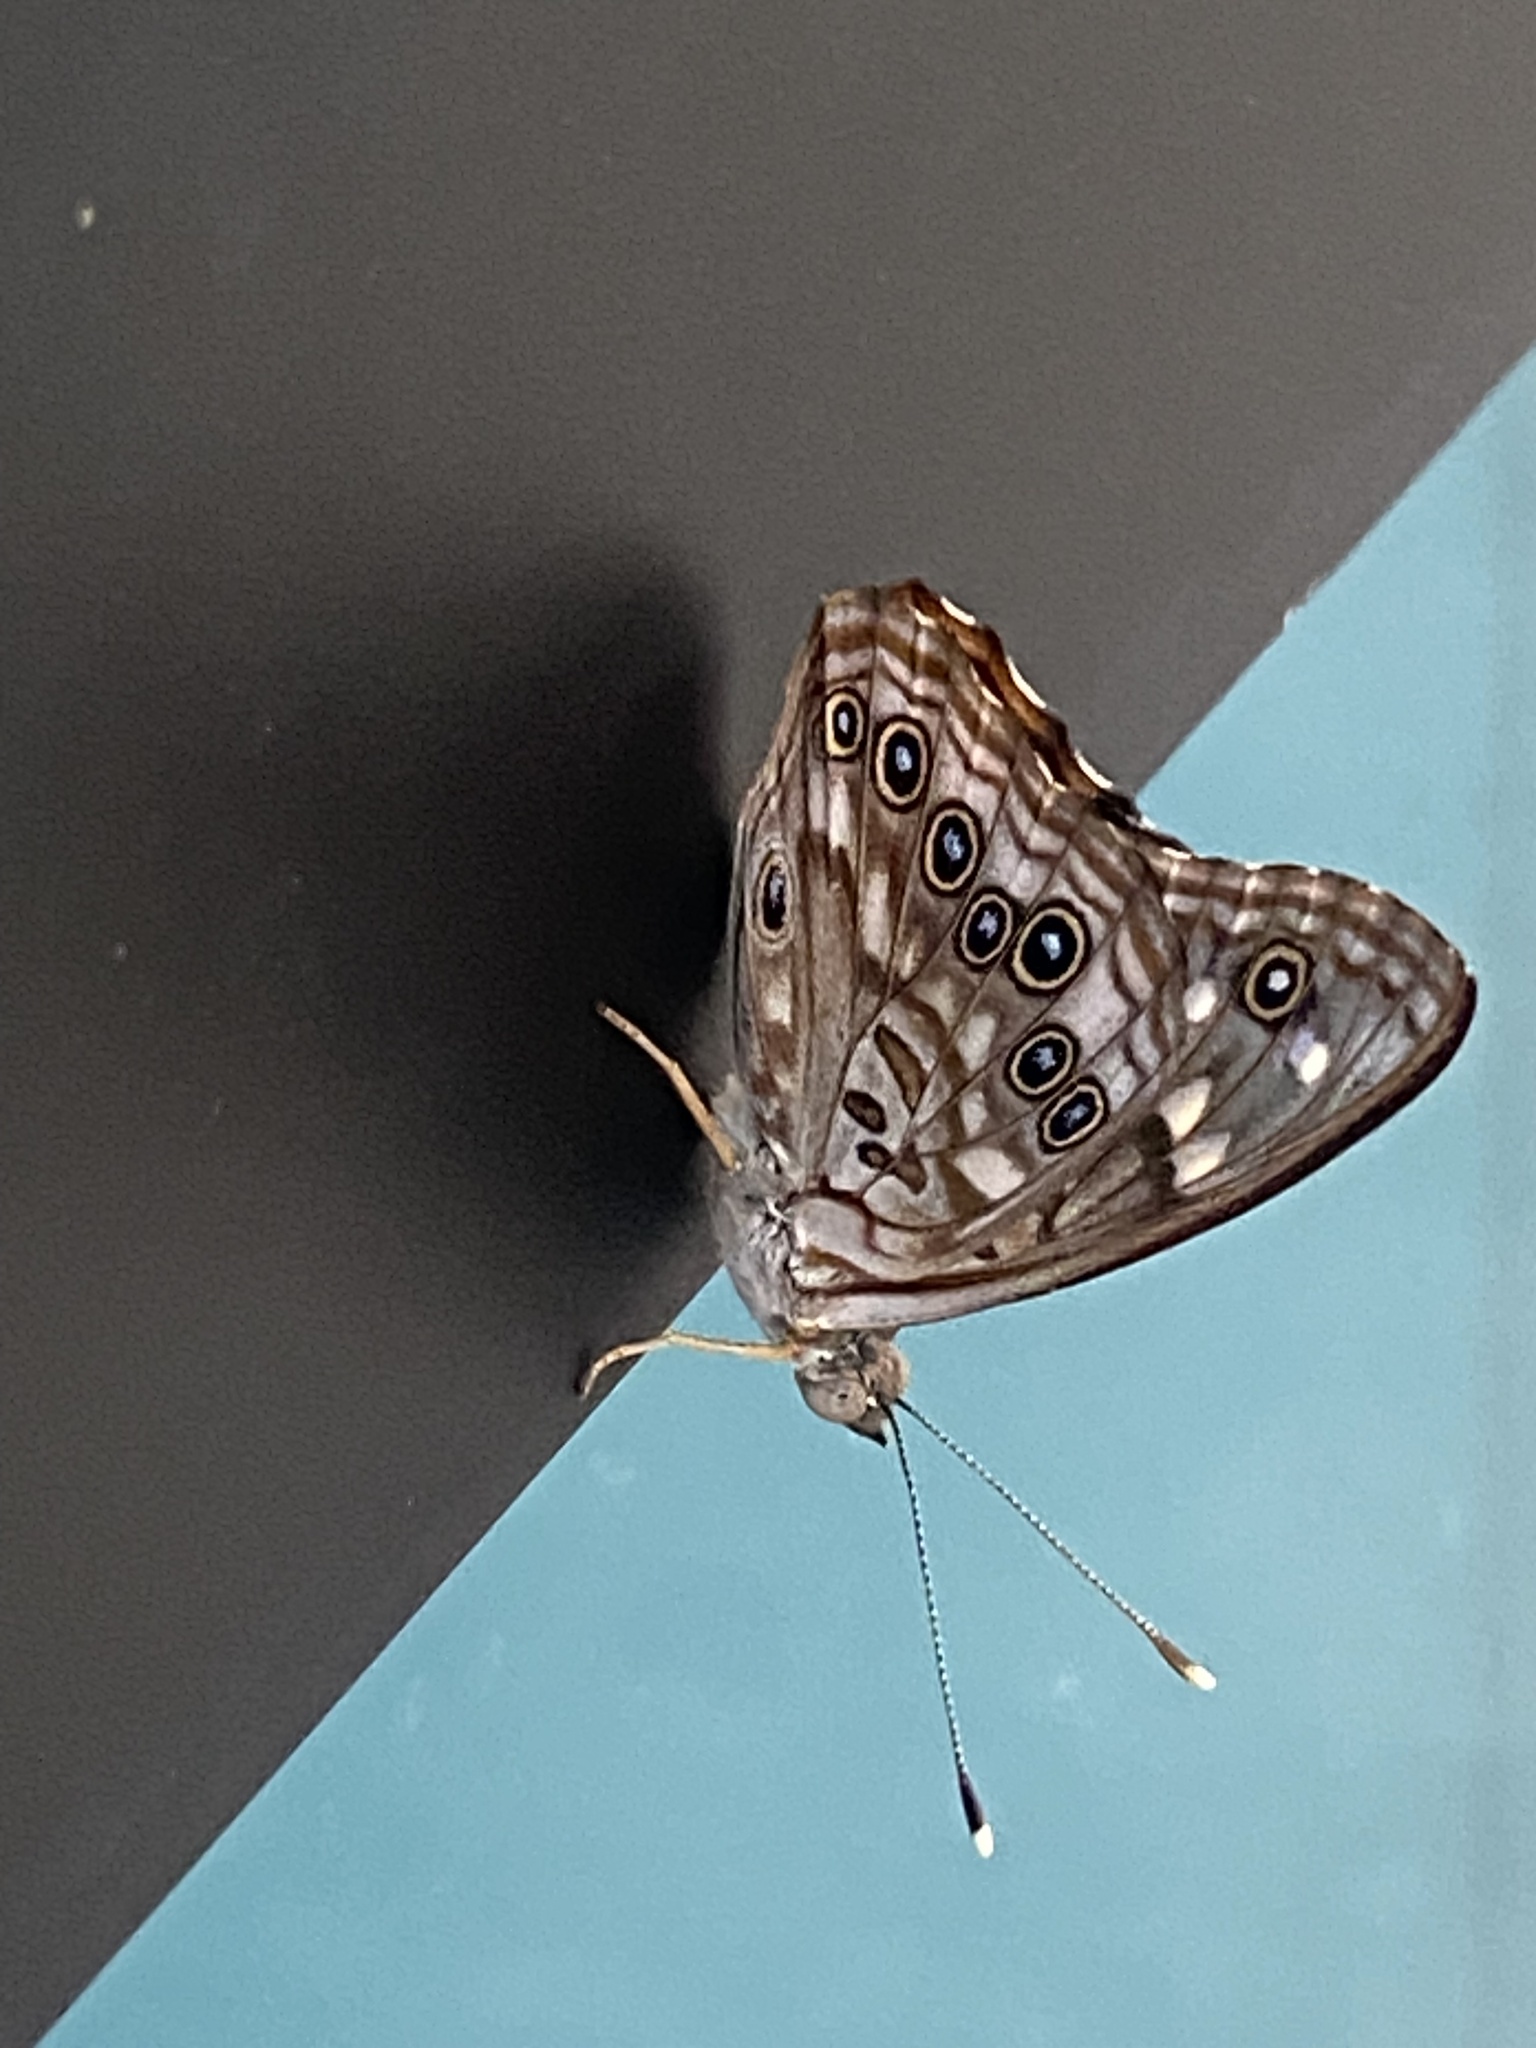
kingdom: Animalia
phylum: Arthropoda
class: Insecta
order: Lepidoptera
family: Nymphalidae
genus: Asterocampa
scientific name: Asterocampa celtis
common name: Hackberry emperor
